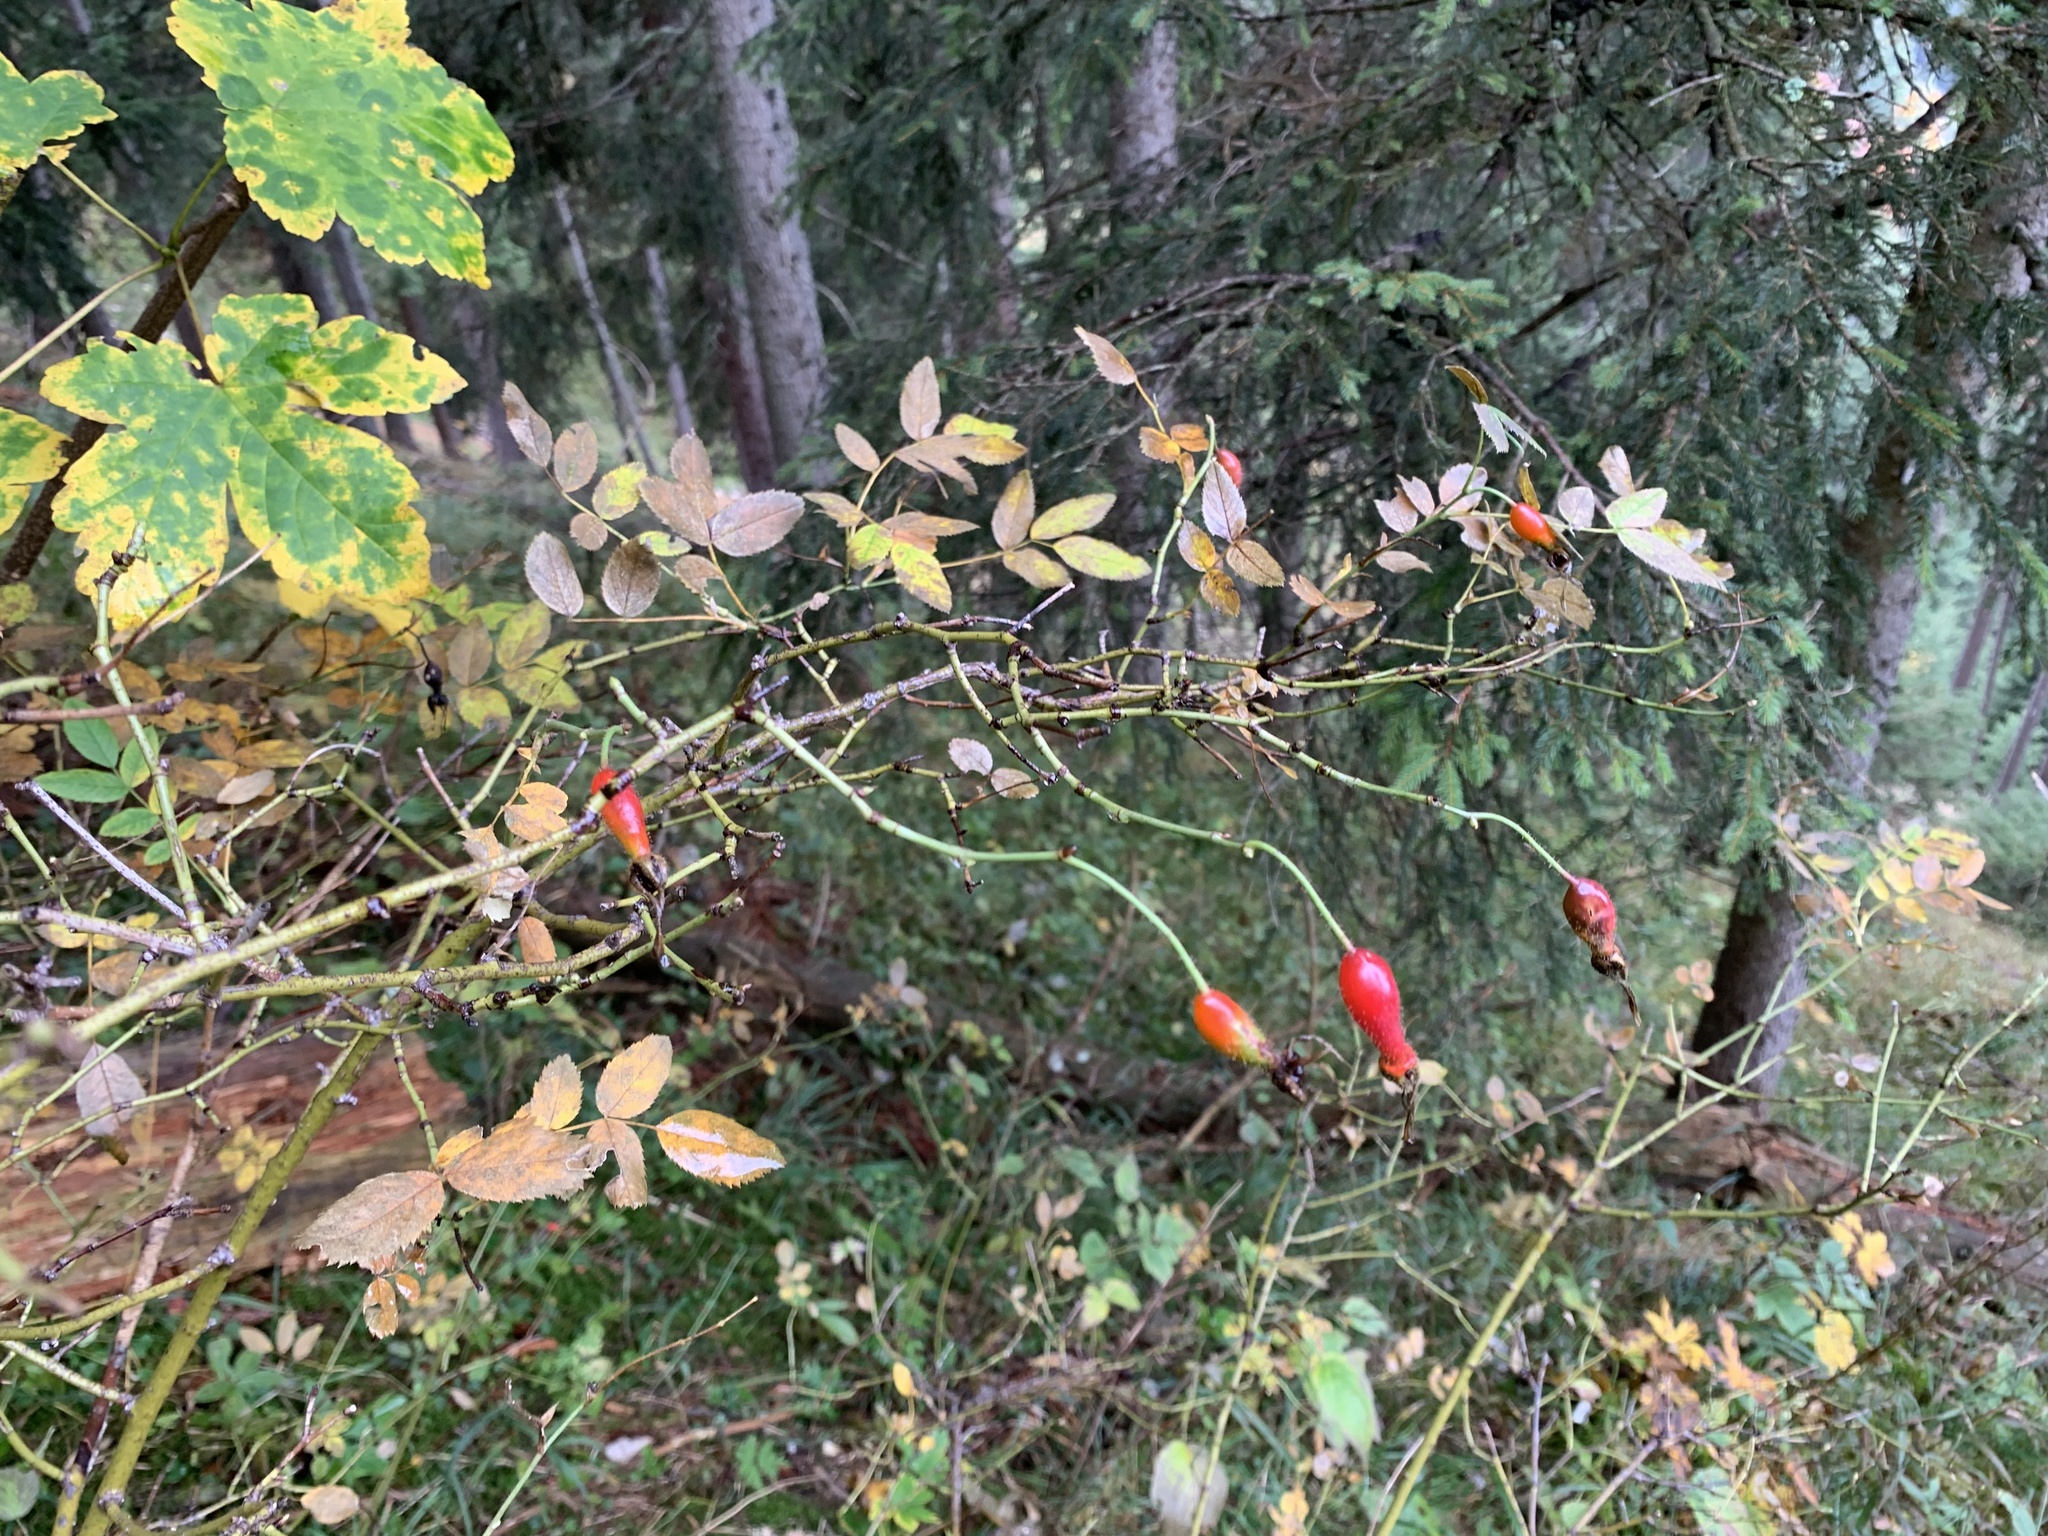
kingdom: Plantae
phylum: Tracheophyta
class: Magnoliopsida
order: Rosales
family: Rosaceae
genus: Rosa
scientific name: Rosa pendulina
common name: Alpine rose
